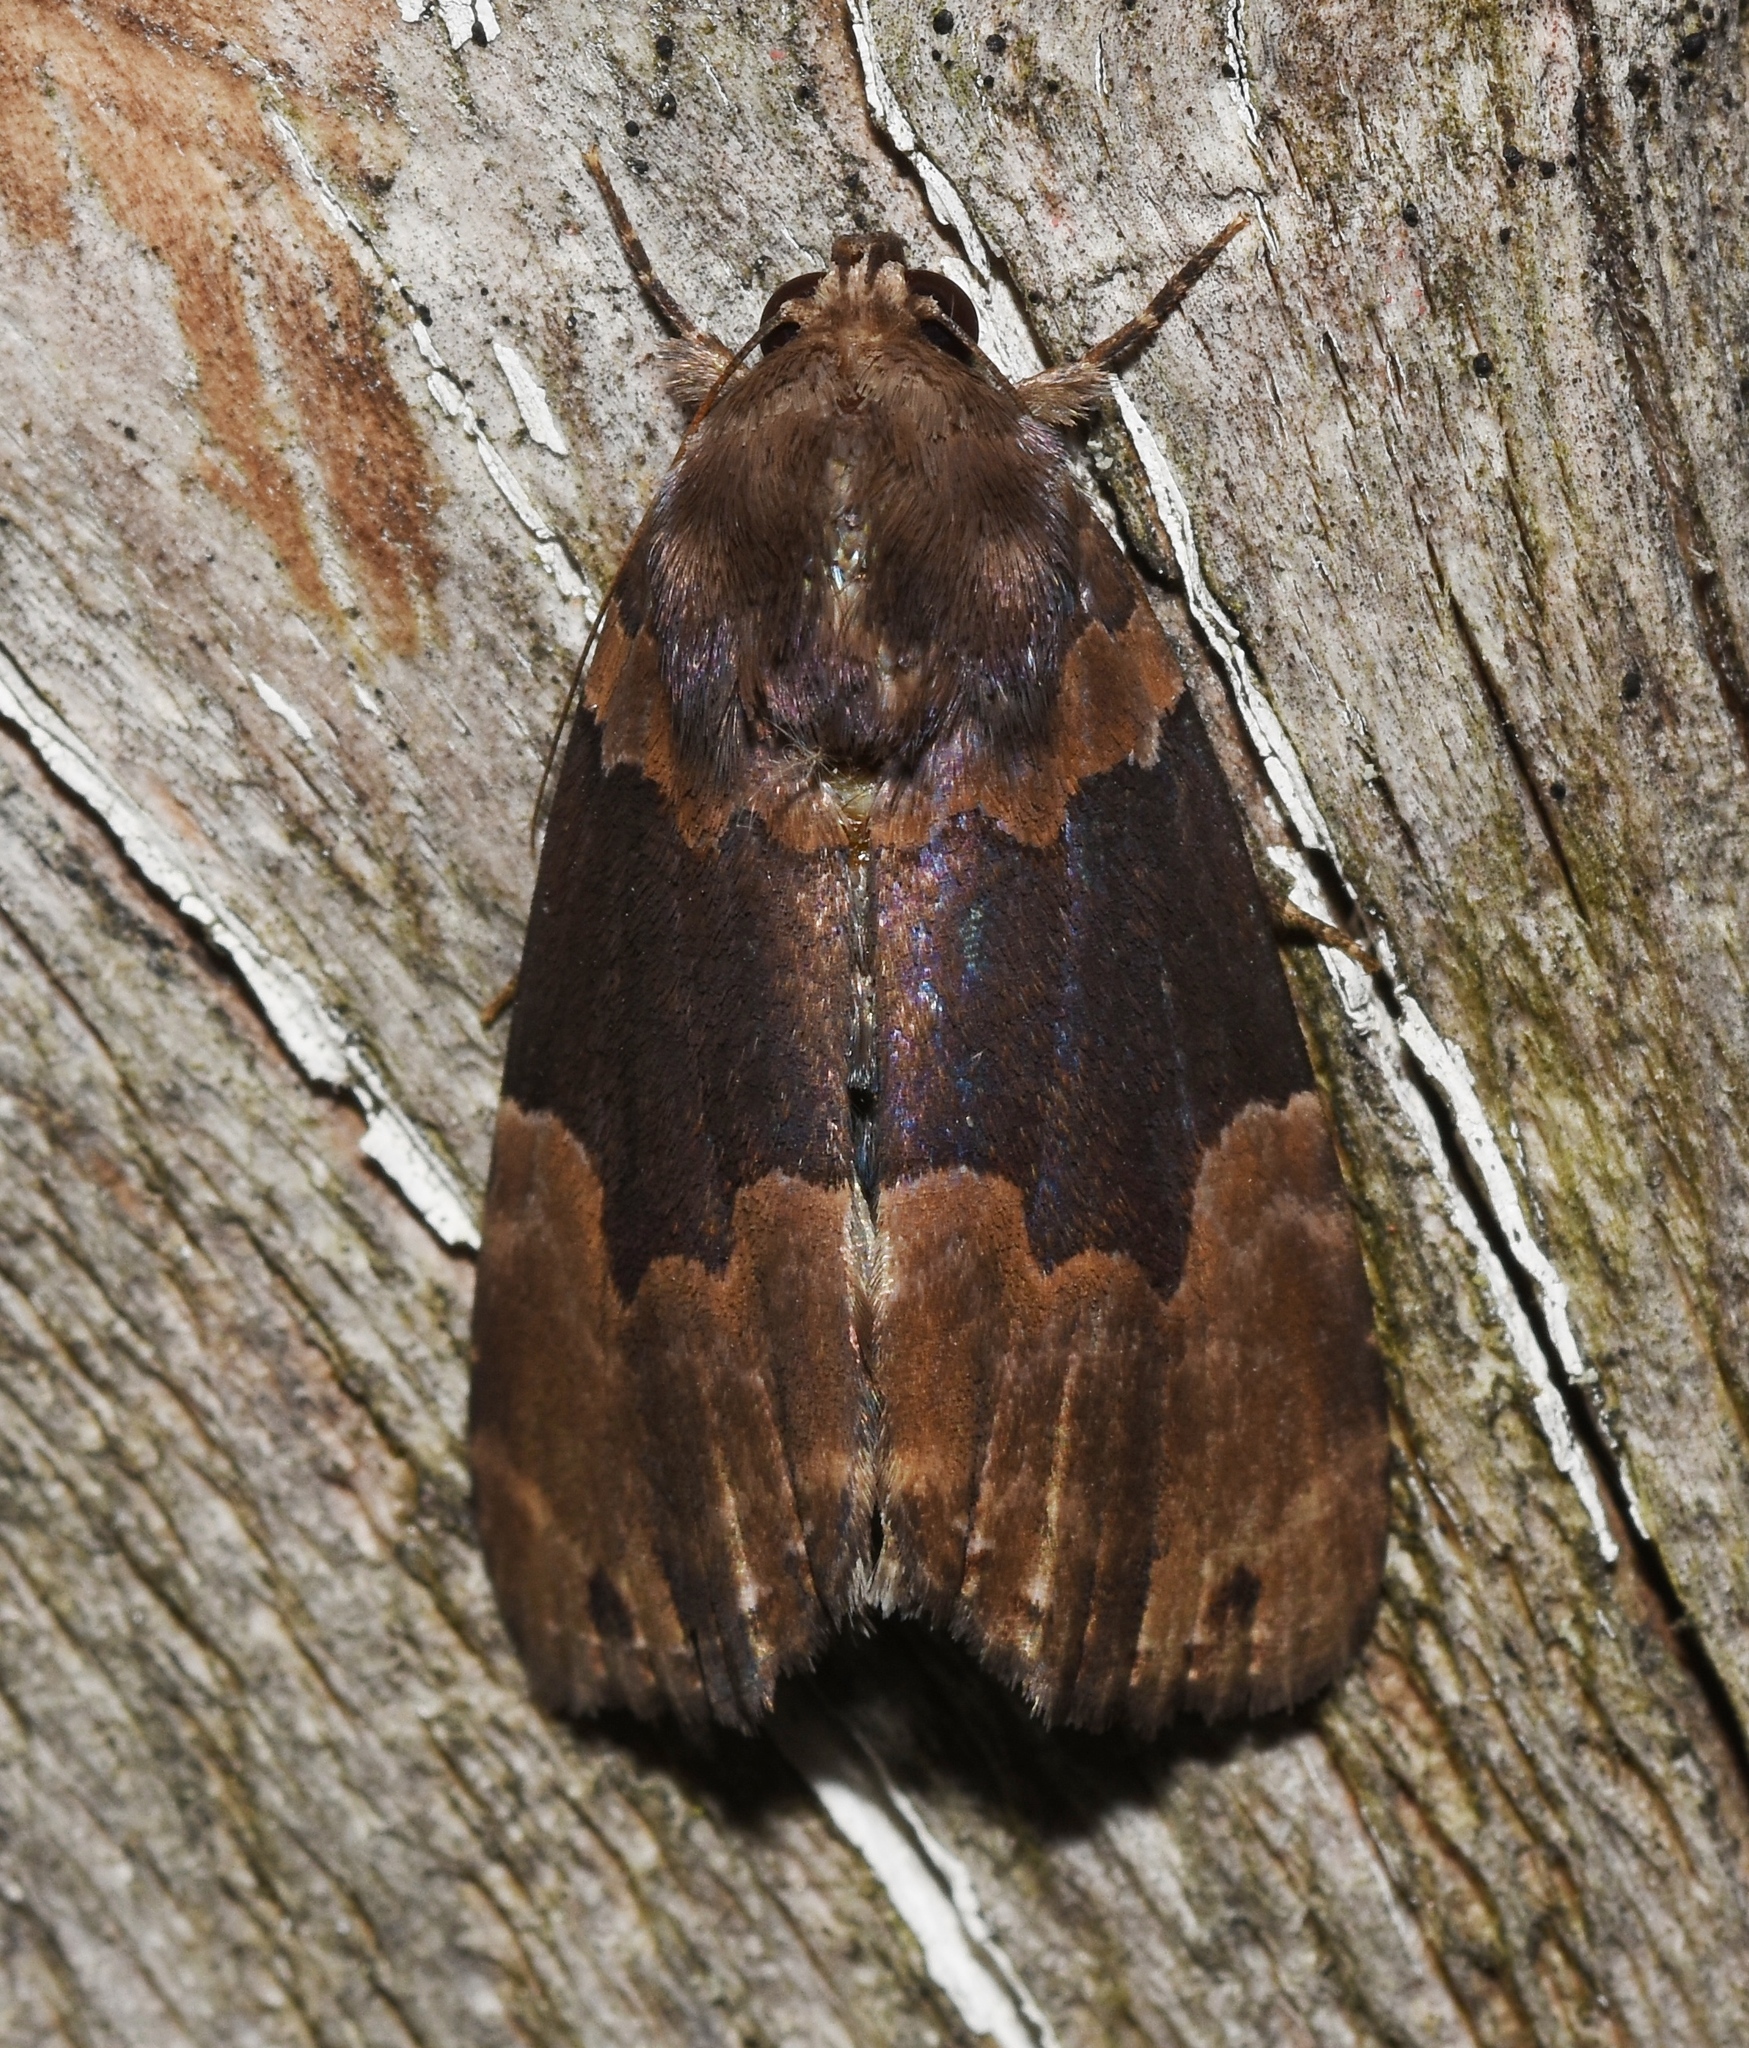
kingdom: Animalia
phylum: Arthropoda
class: Insecta
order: Lepidoptera
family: Erebidae
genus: Dinumma
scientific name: Dinumma deponens
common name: Purplish moth
